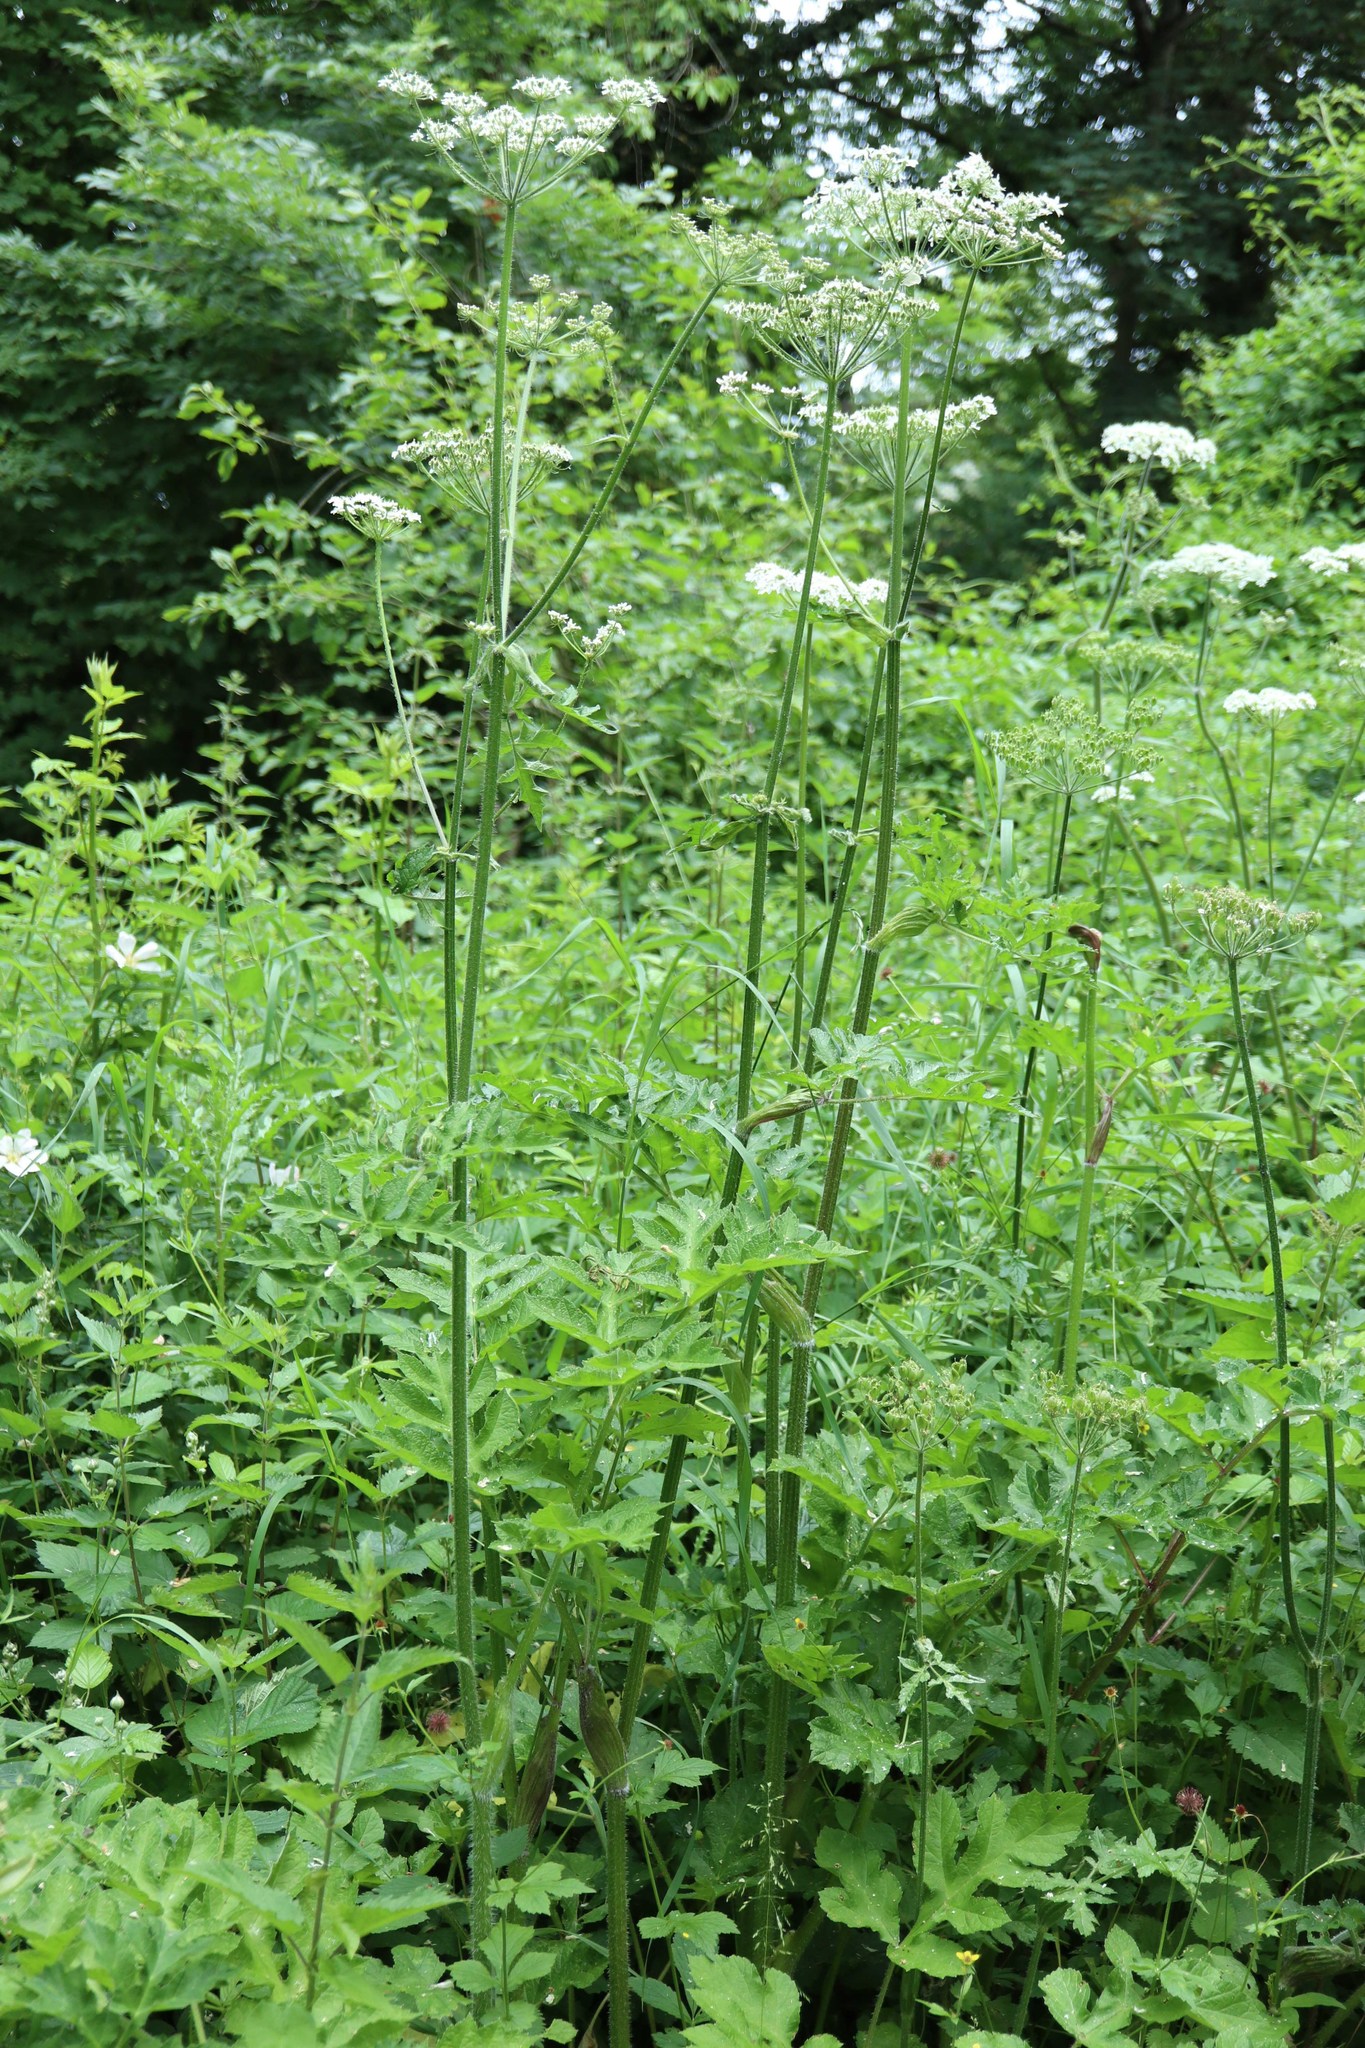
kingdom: Plantae
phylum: Tracheophyta
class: Magnoliopsida
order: Apiales
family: Apiaceae
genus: Heracleum
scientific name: Heracleum sphondylium
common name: Hogweed
